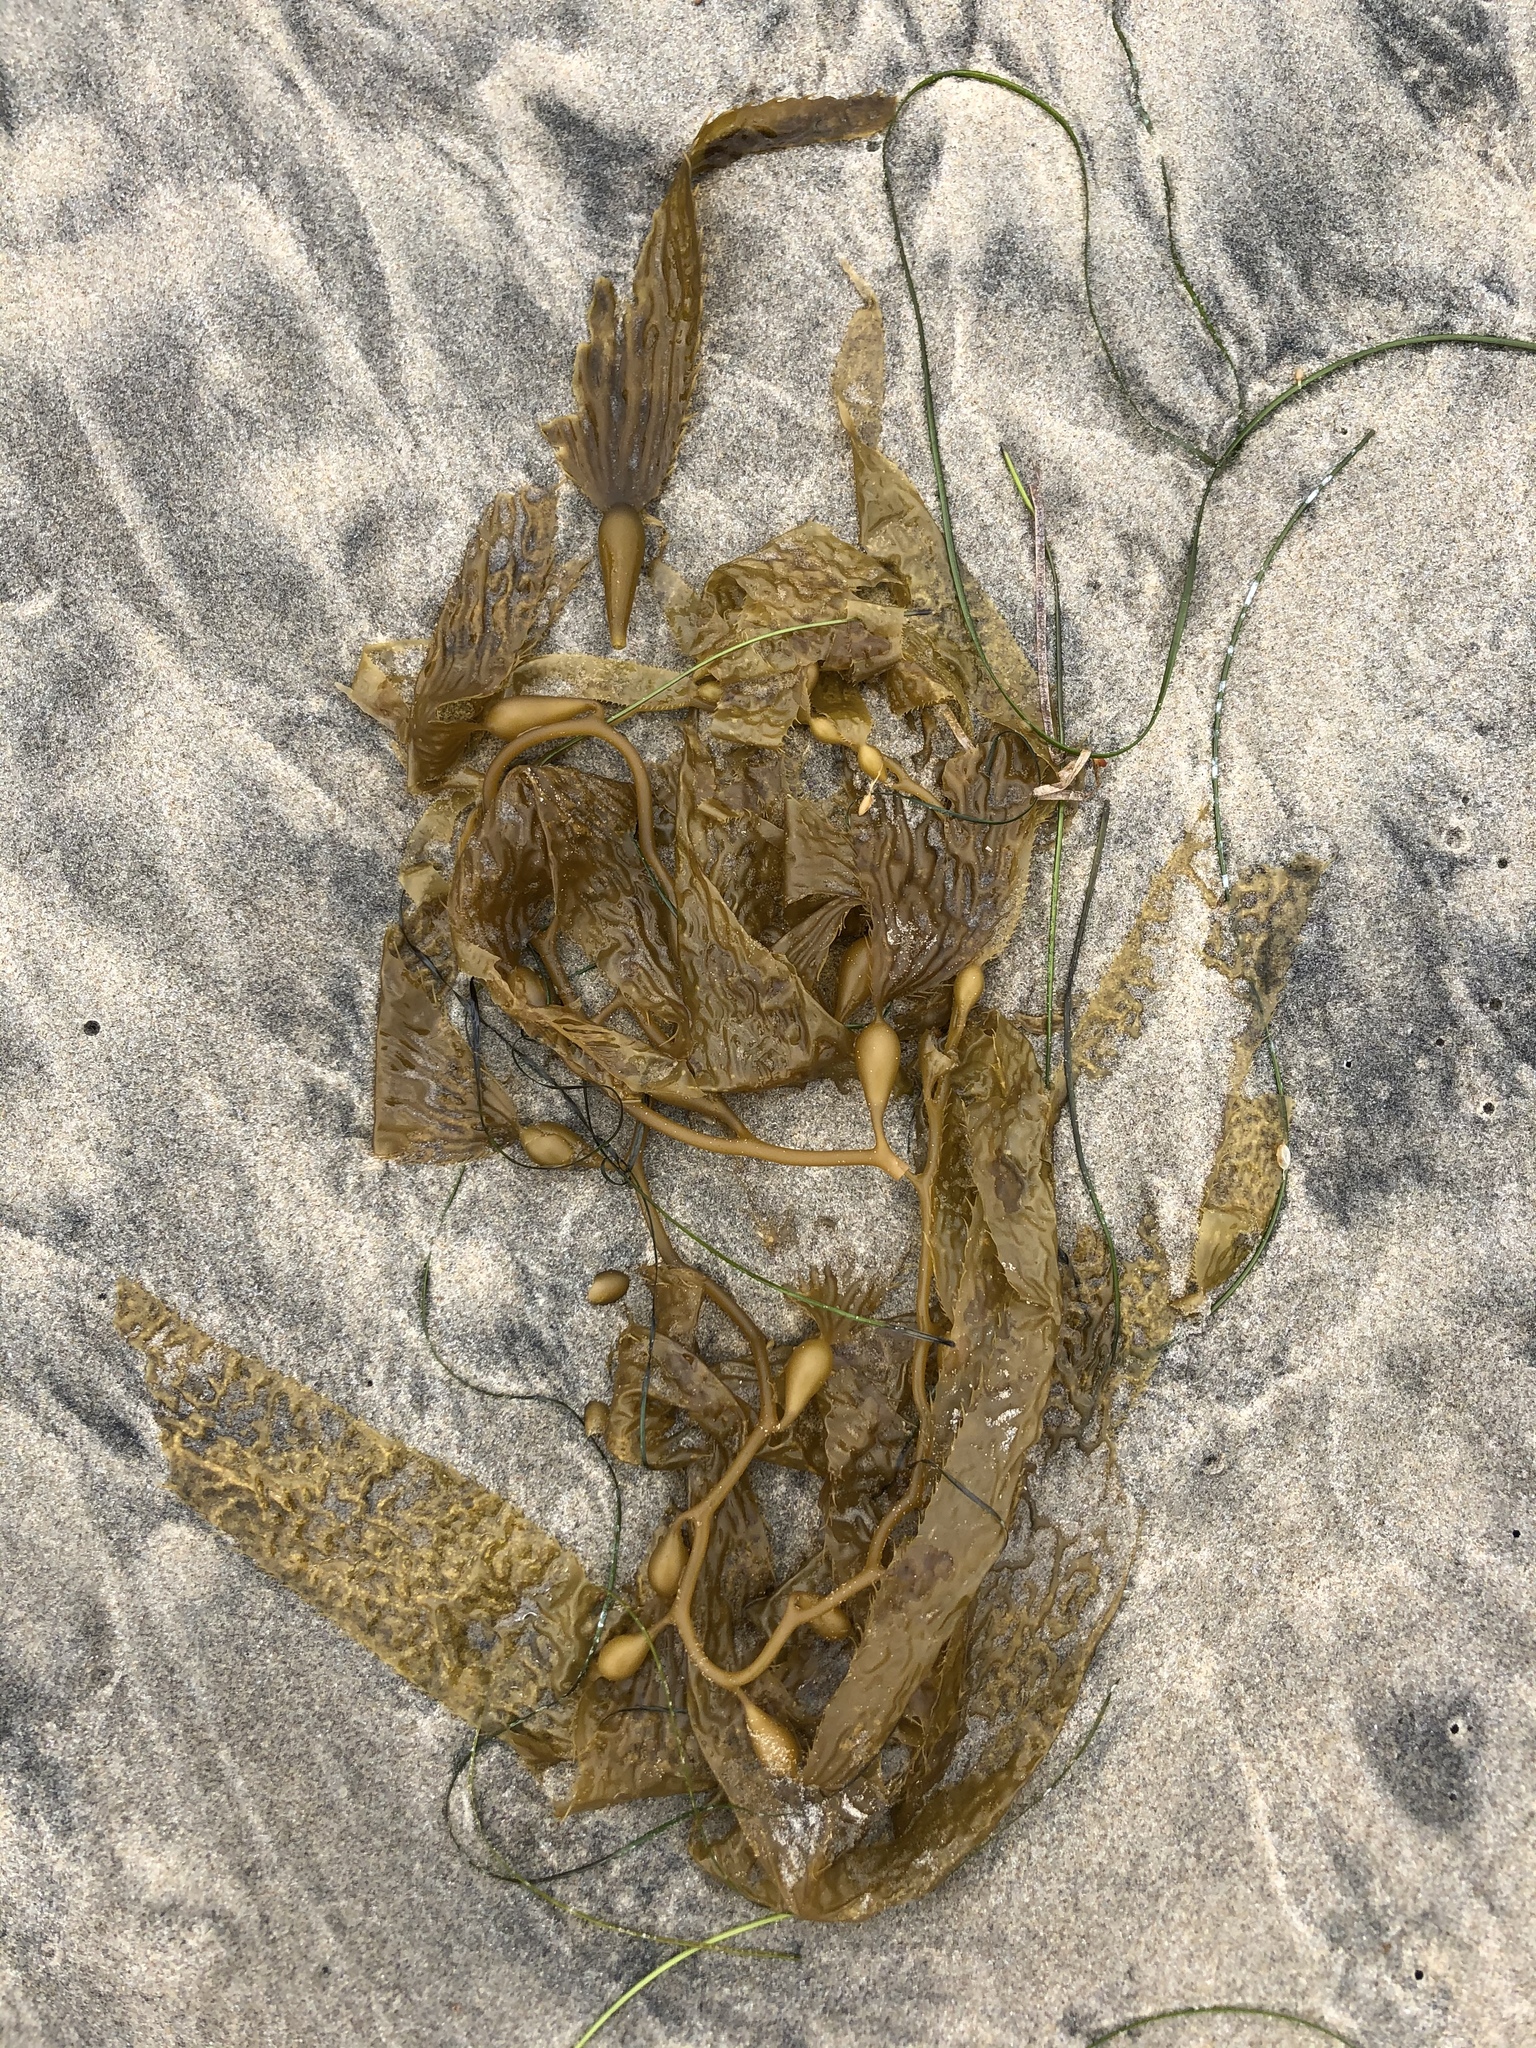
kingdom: Chromista
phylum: Ochrophyta
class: Phaeophyceae
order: Laminariales
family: Laminariaceae
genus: Macrocystis
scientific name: Macrocystis pyrifera
